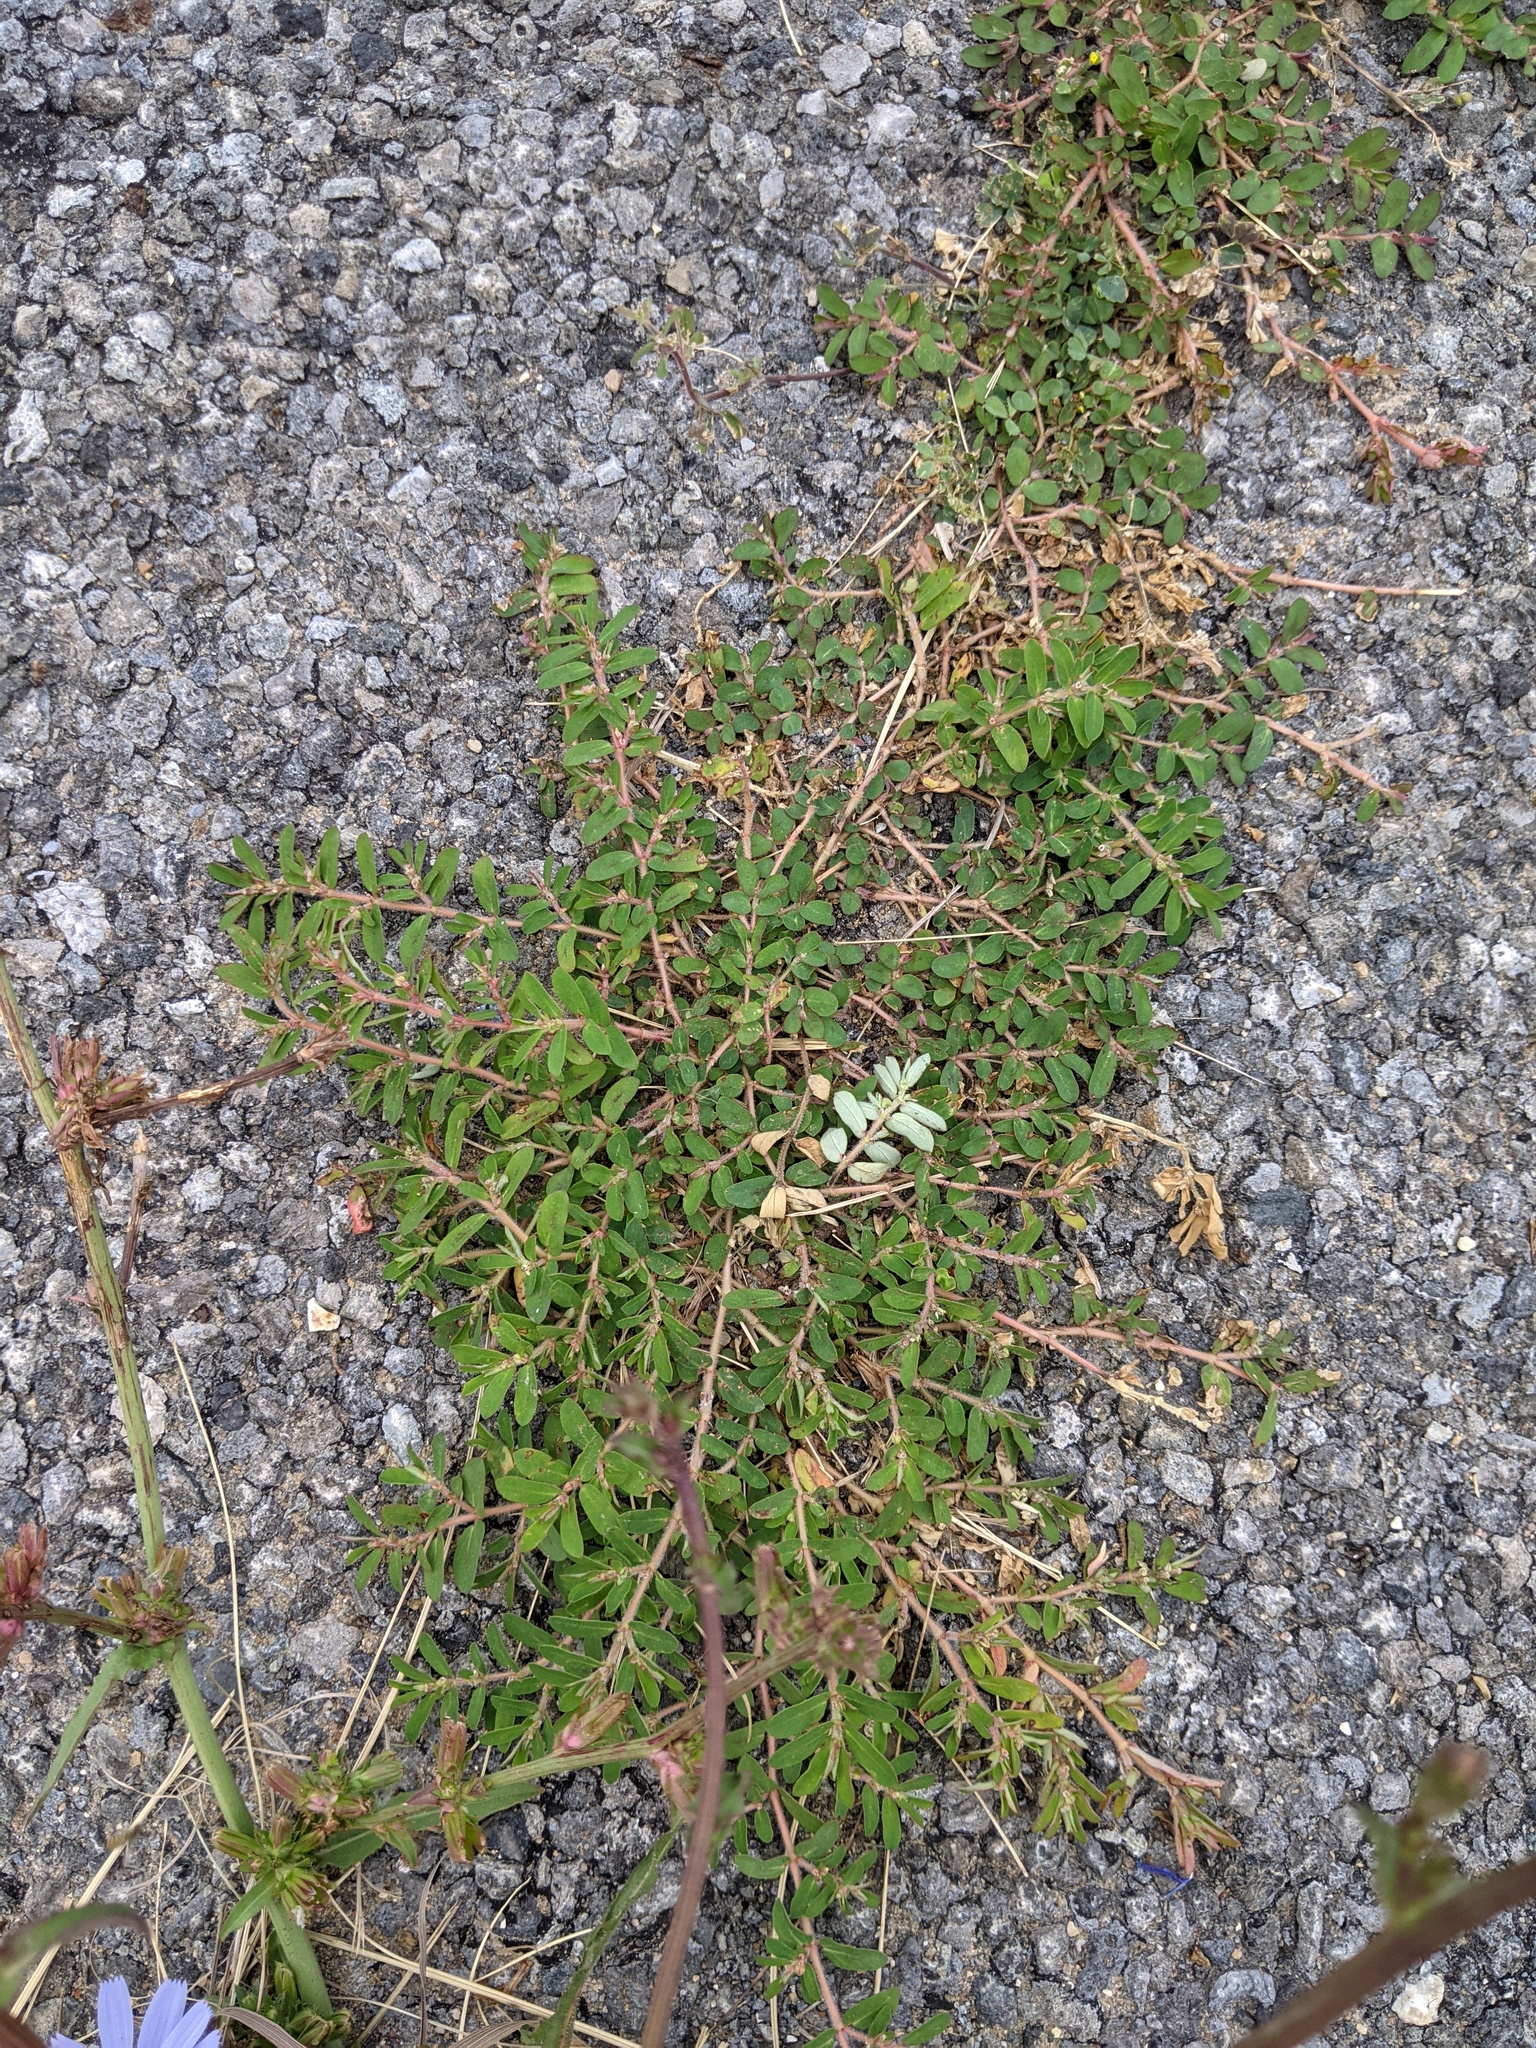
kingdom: Plantae
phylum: Tracheophyta
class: Magnoliopsida
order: Malpighiales
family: Euphorbiaceae
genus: Euphorbia
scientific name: Euphorbia maculata
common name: Spotted spurge
